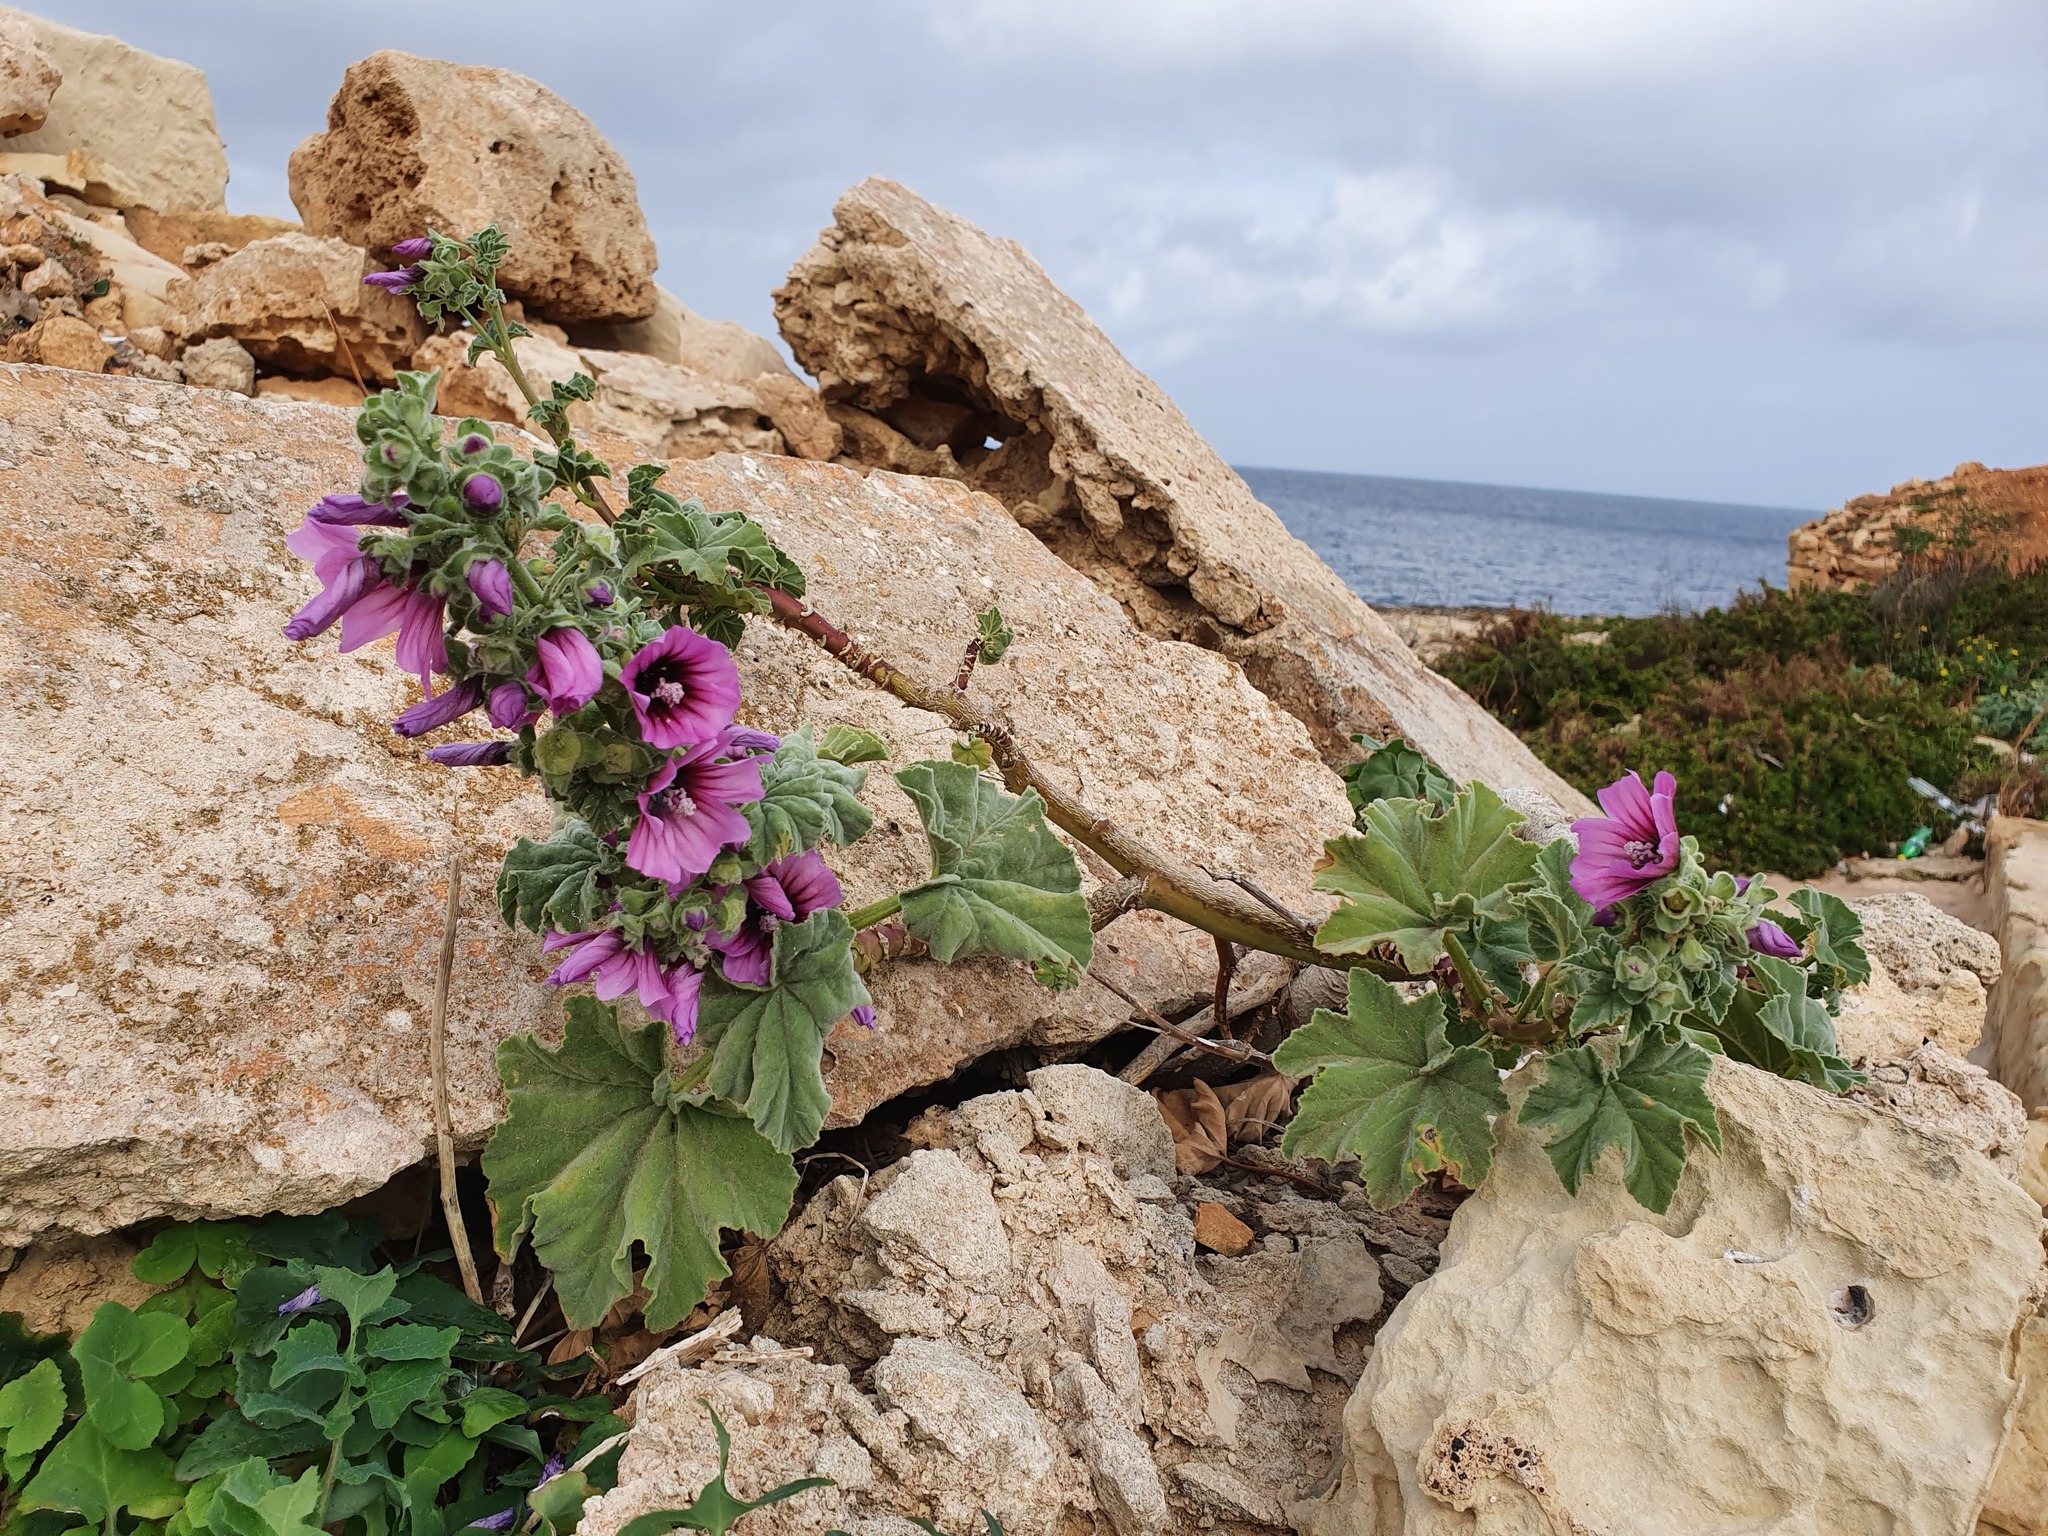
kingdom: Plantae
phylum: Tracheophyta
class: Magnoliopsida
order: Malvales
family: Malvaceae
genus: Malva
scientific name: Malva arborea
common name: Tree mallow
